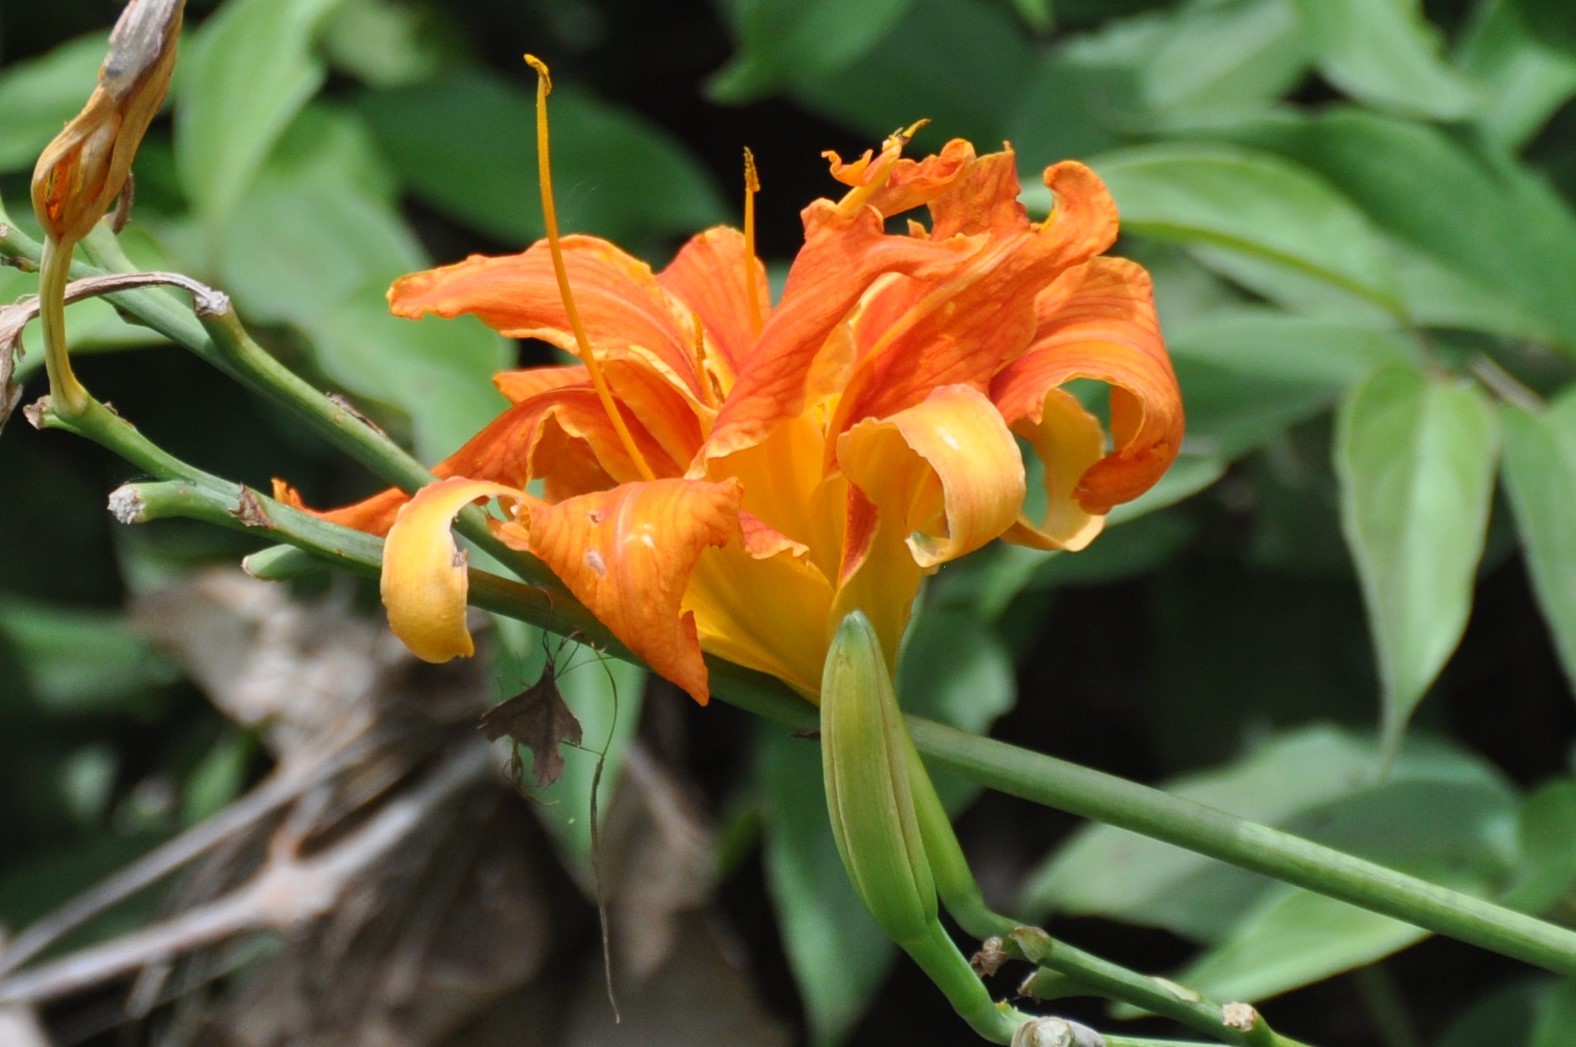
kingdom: Plantae
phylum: Tracheophyta
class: Liliopsida
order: Asparagales
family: Asphodelaceae
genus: Hemerocallis
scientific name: Hemerocallis fulva
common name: Orange day-lily
